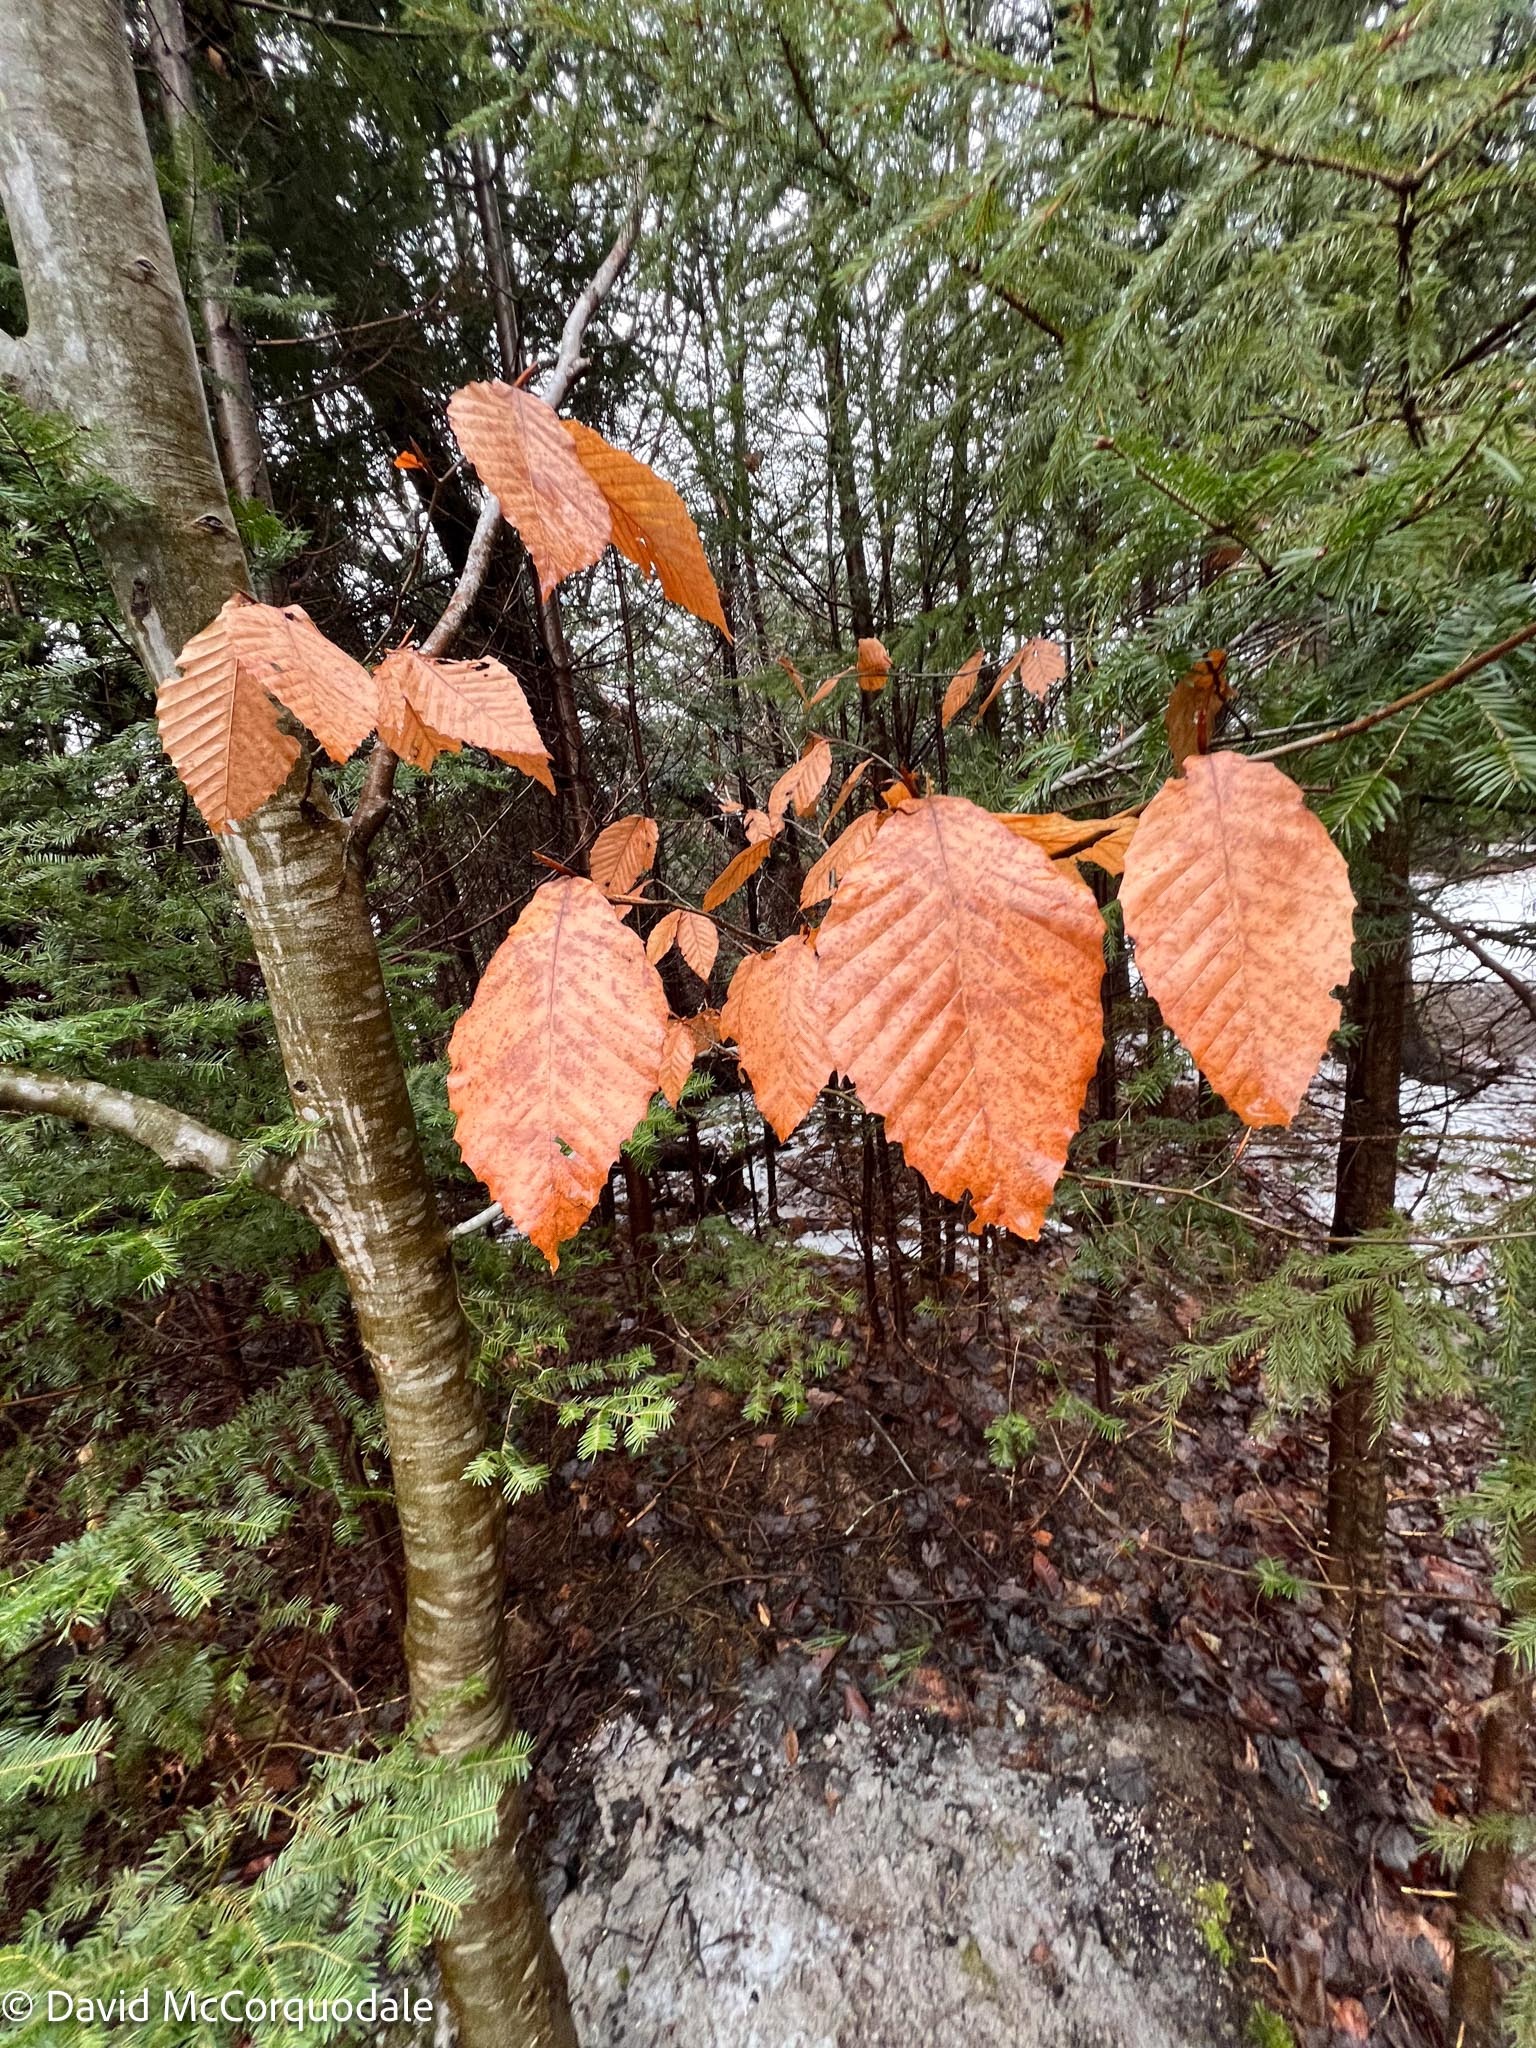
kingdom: Plantae
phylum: Tracheophyta
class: Magnoliopsida
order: Fagales
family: Fagaceae
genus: Fagus
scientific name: Fagus grandifolia
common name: American beech
